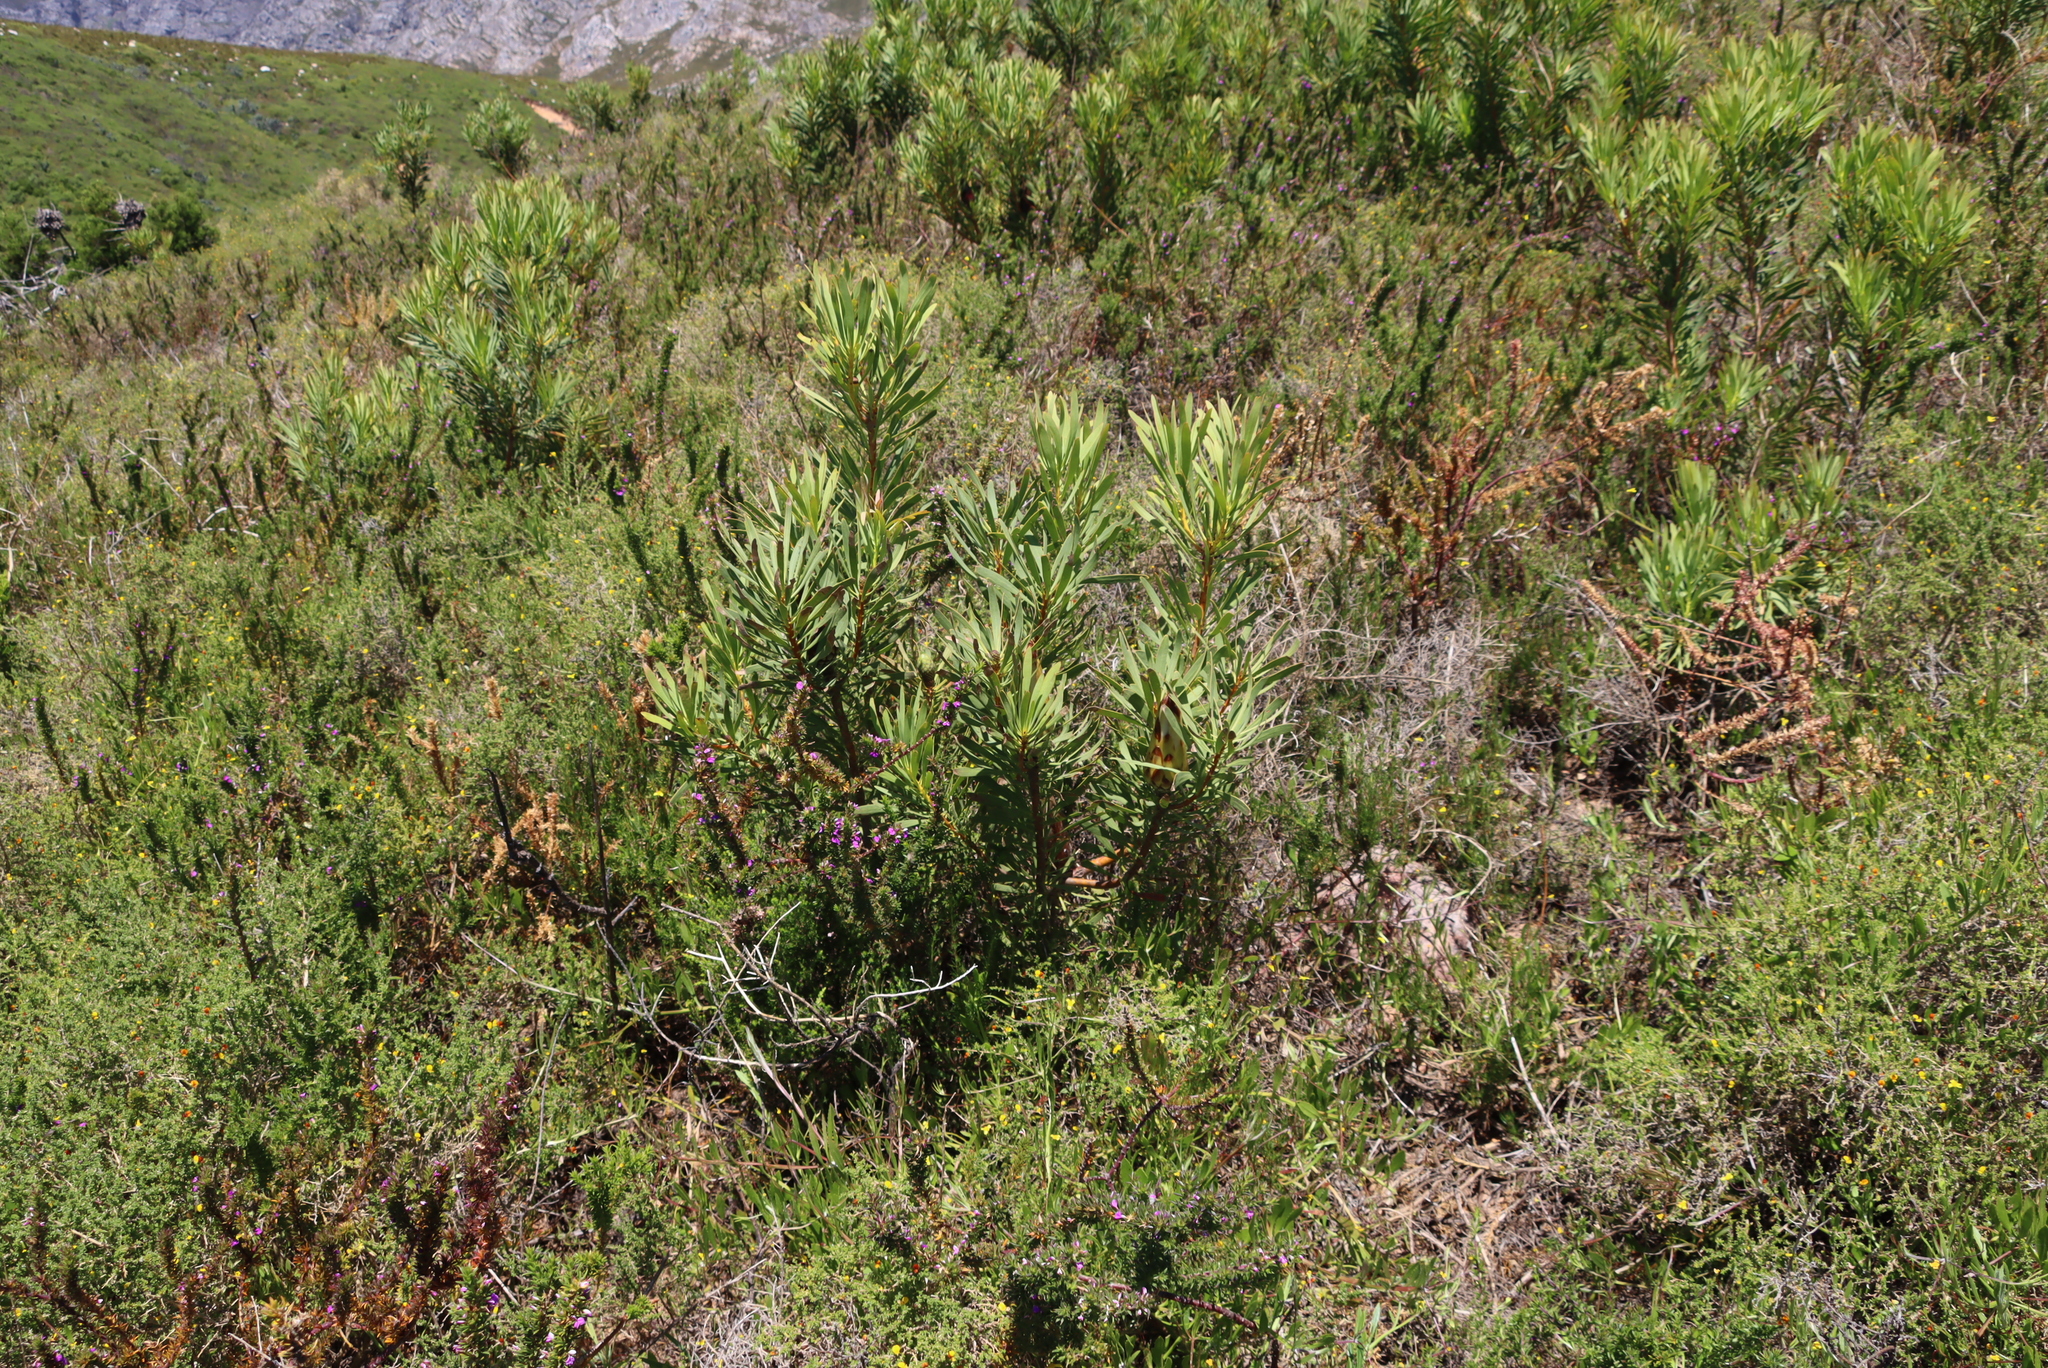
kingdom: Plantae
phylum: Tracheophyta
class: Magnoliopsida
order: Proteales
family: Proteaceae
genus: Protea
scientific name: Protea repens
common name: Sugarbush
